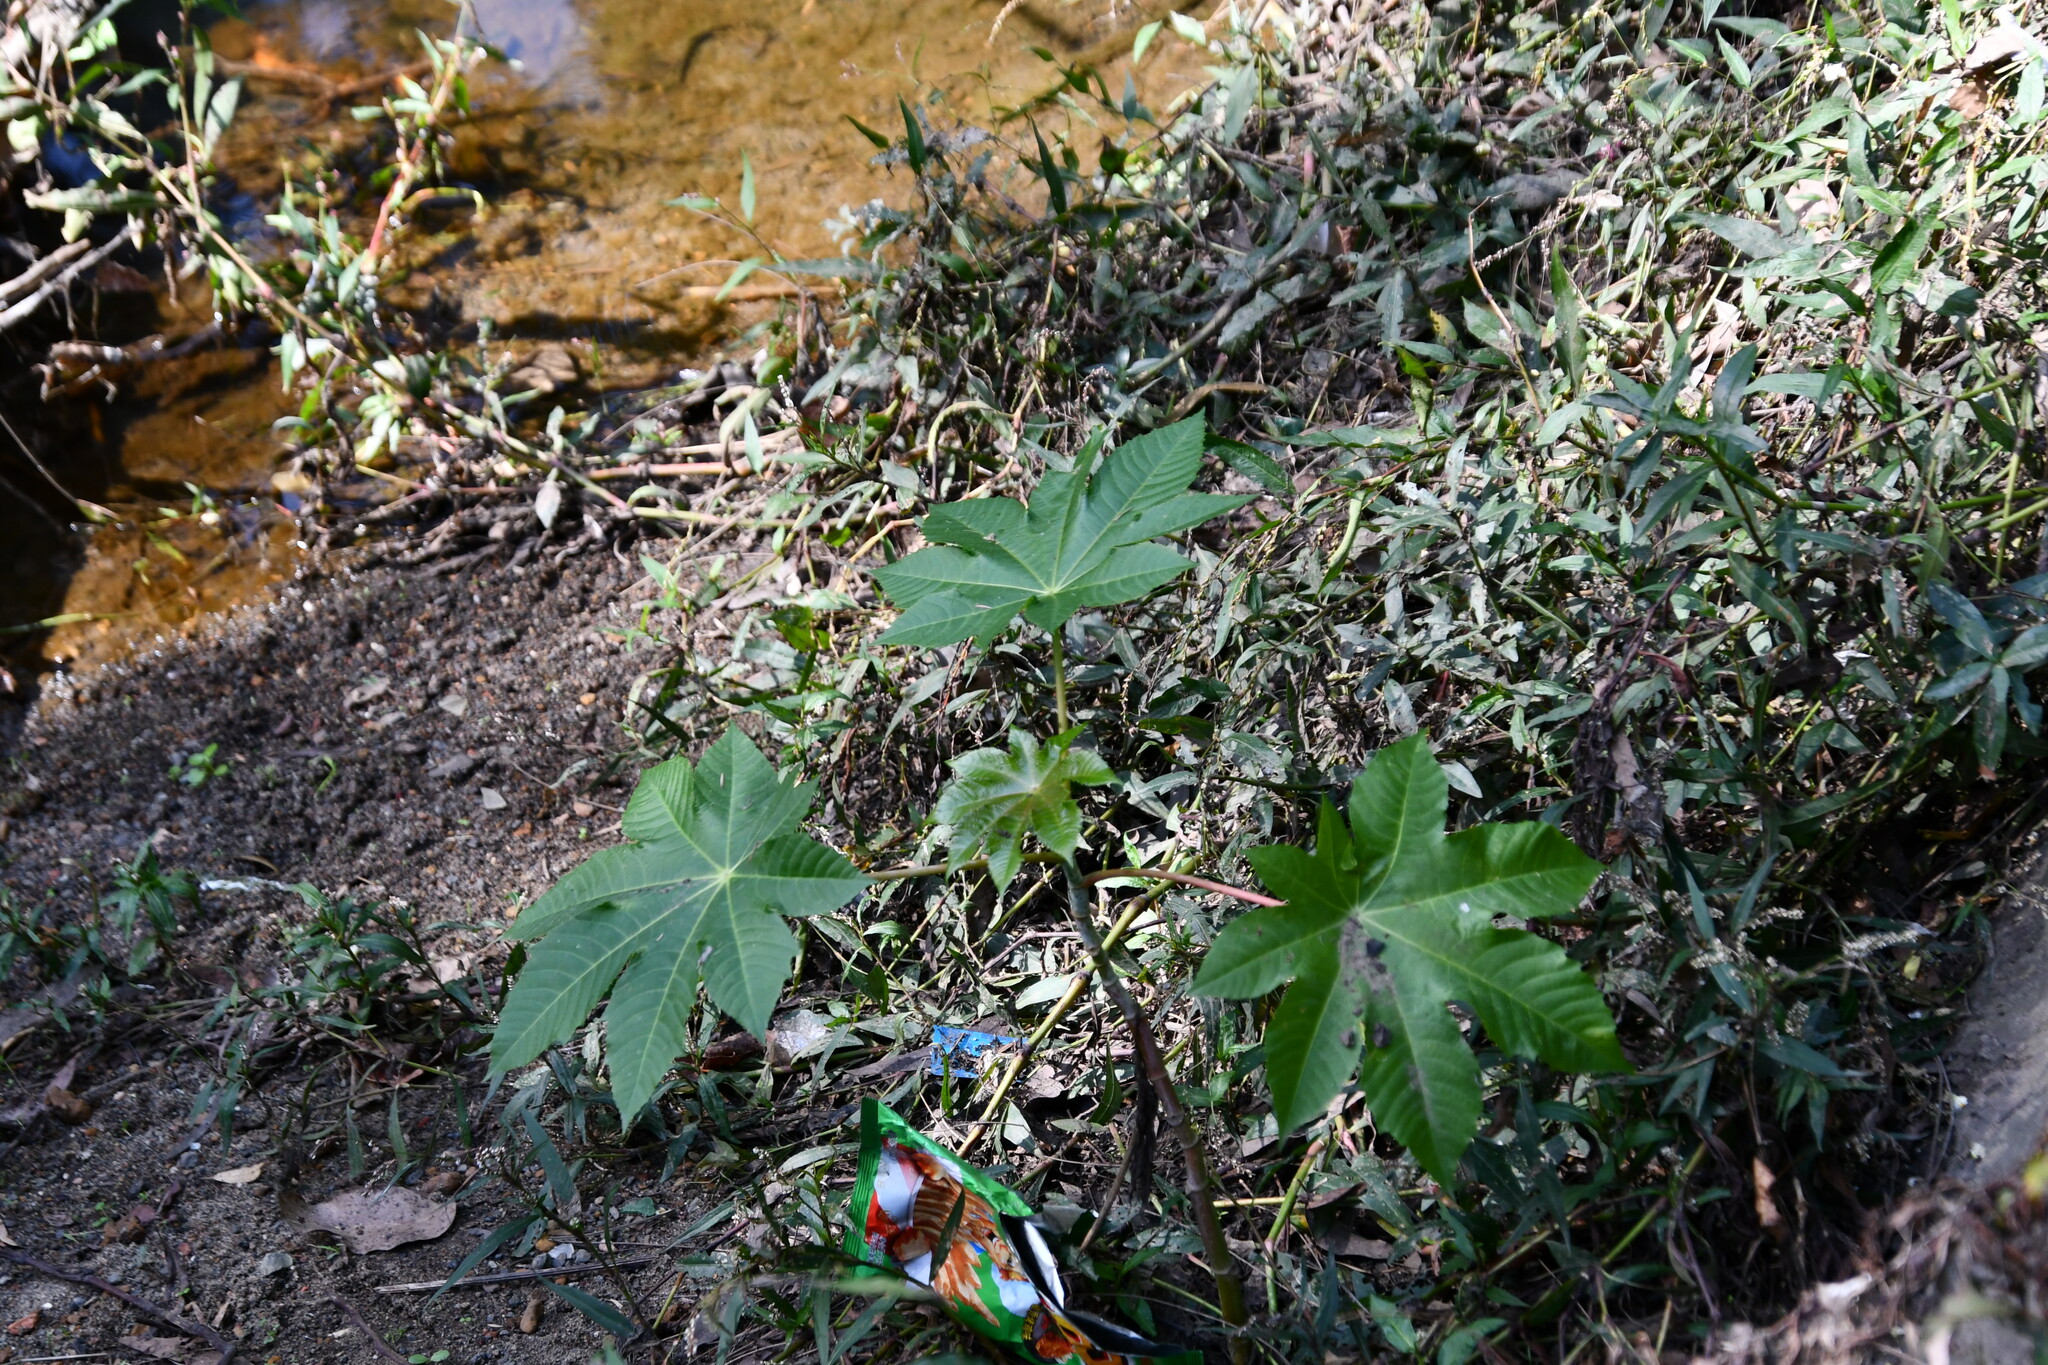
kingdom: Plantae
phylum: Tracheophyta
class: Magnoliopsida
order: Malpighiales
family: Euphorbiaceae
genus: Ricinus
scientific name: Ricinus communis
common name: Castor-oil-plant
